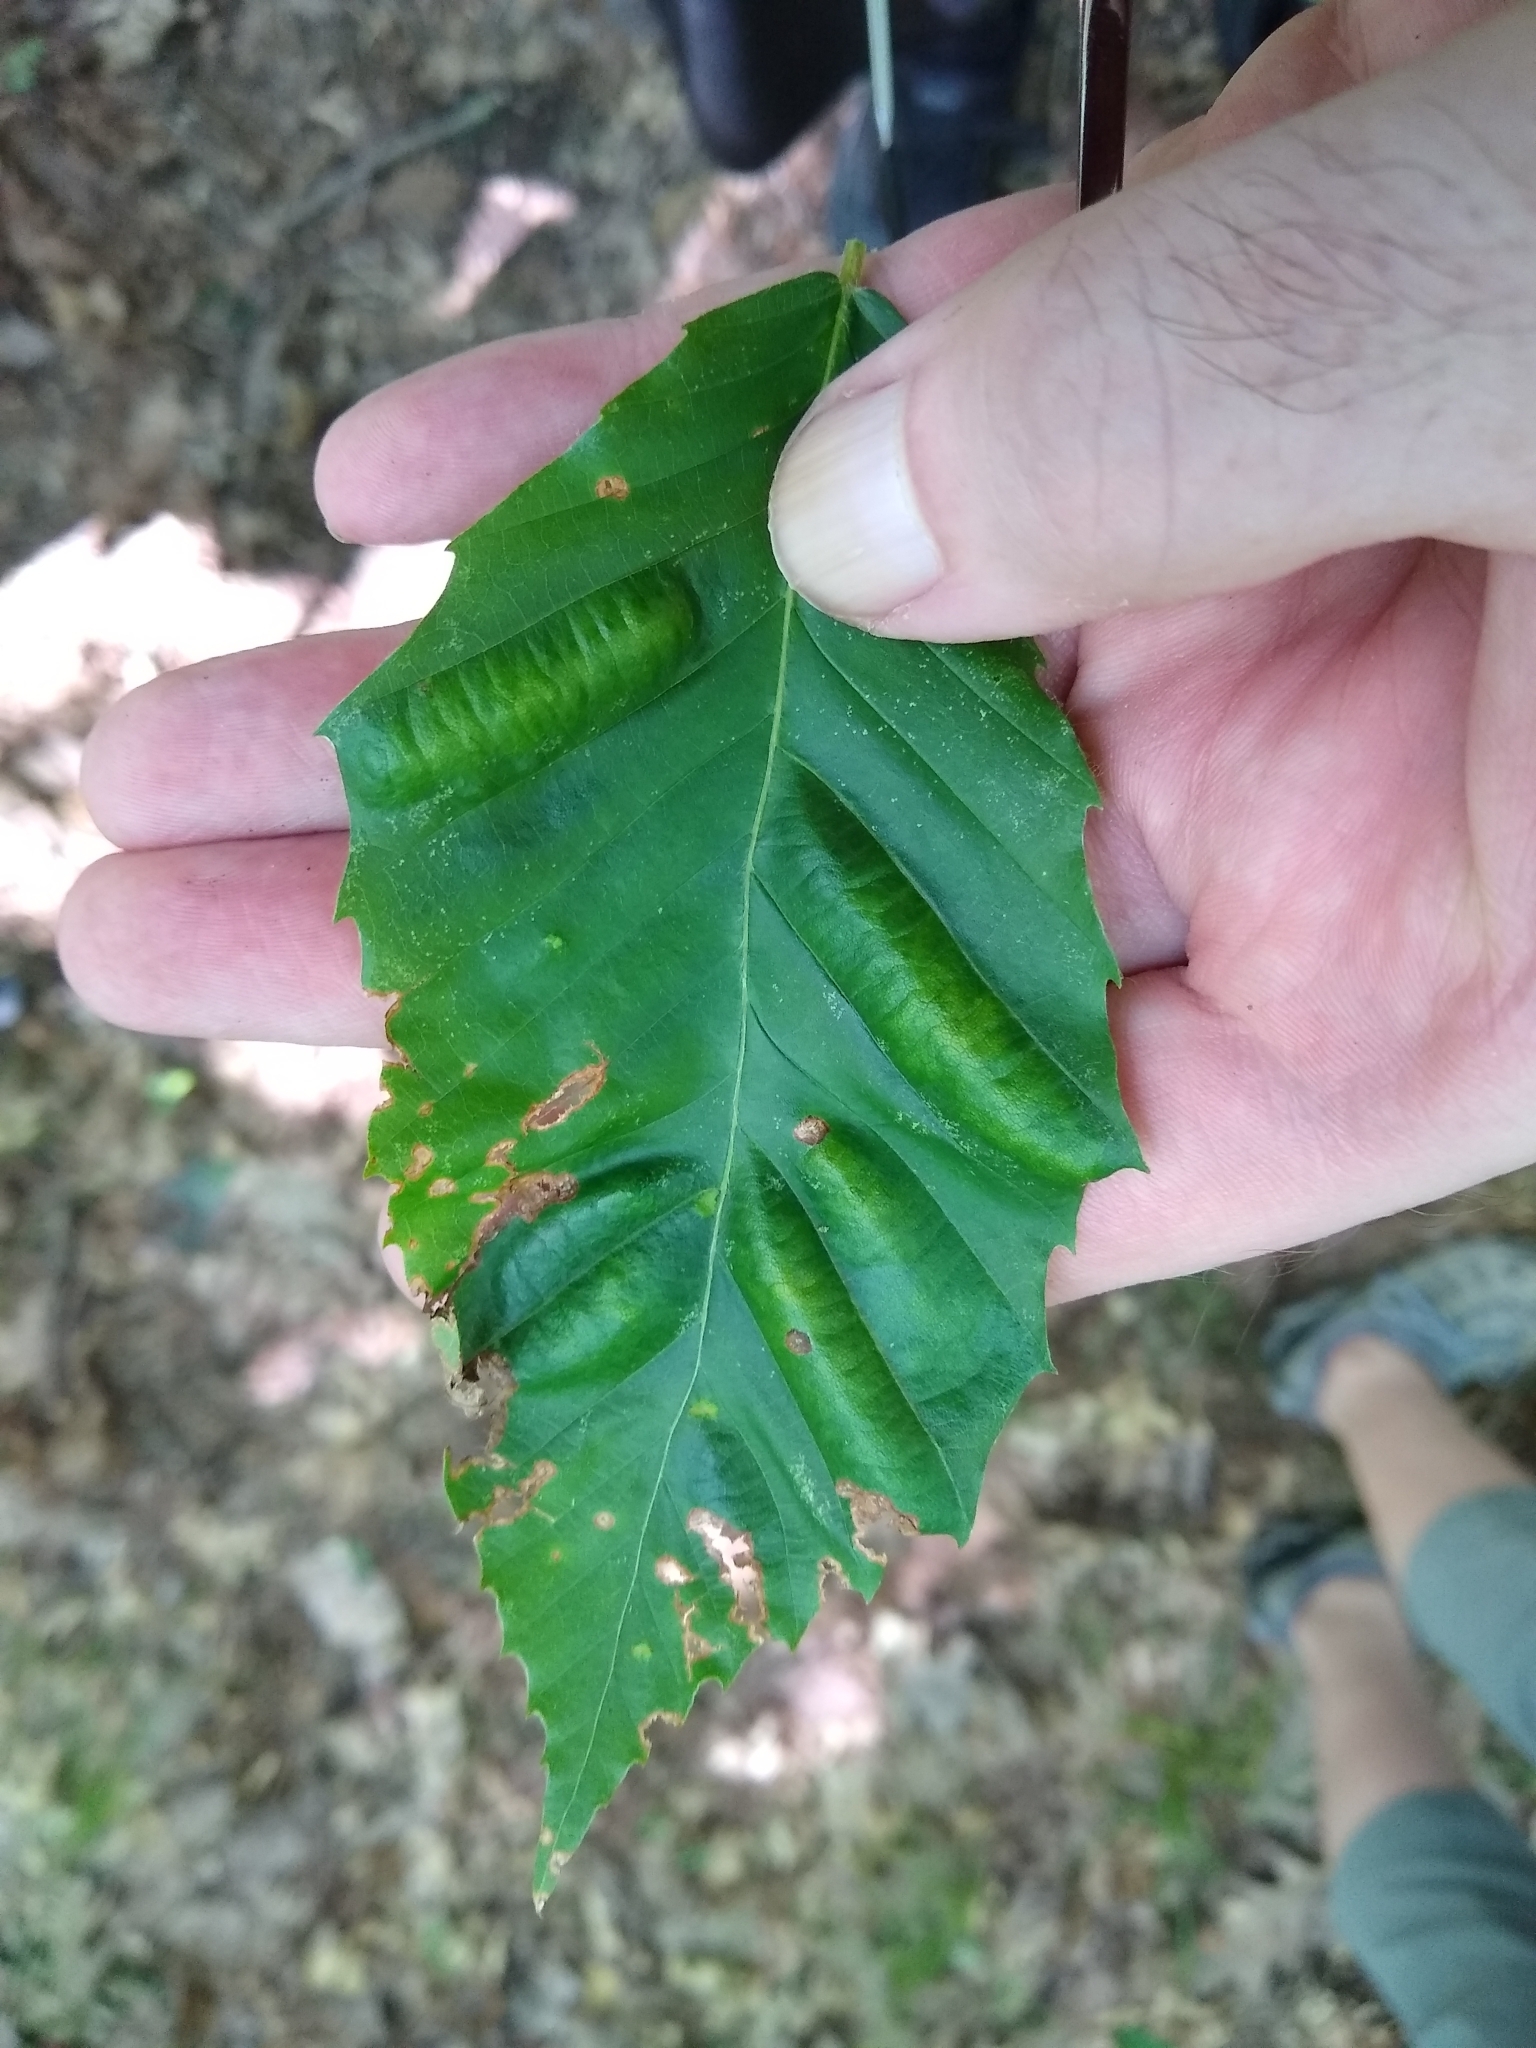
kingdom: Animalia
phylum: Nematoda
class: Chromadorea
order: Rhabditida
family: Anguinidae
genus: Litylenchus
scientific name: Litylenchus crenatae
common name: Beech leaf disease
